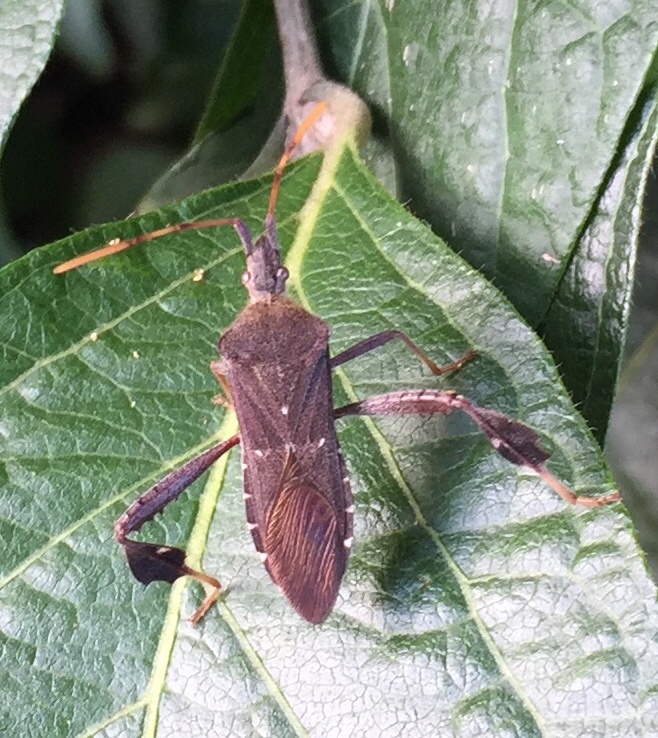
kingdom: Animalia
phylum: Arthropoda
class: Insecta
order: Hemiptera
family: Coreidae
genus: Leptoglossus
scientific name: Leptoglossus oppositus
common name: Northern leaf-footed bug
